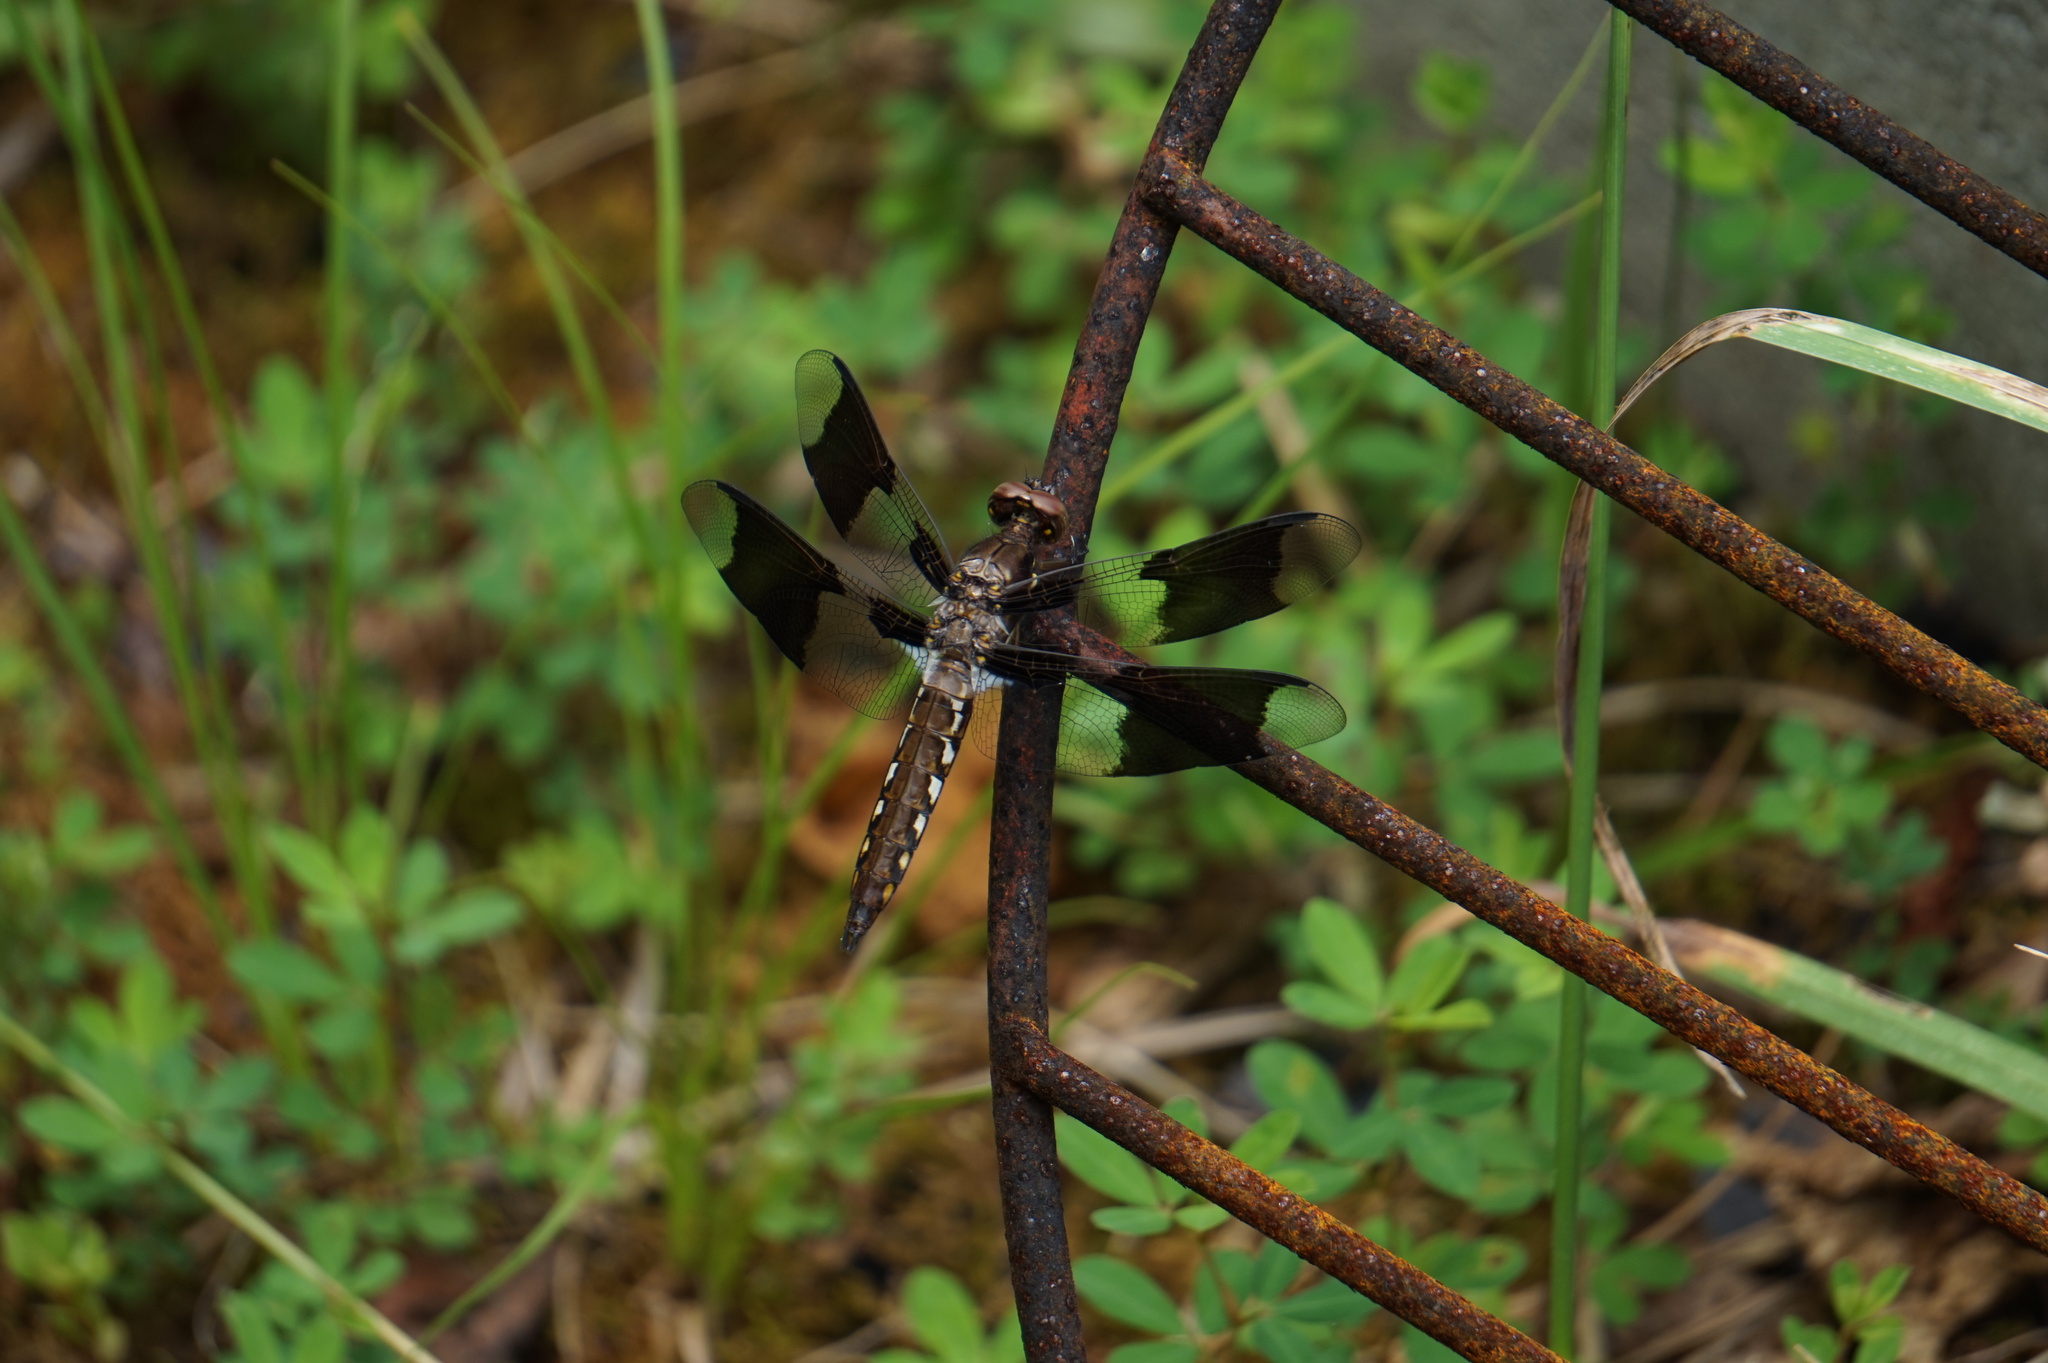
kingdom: Animalia
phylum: Arthropoda
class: Insecta
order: Odonata
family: Libellulidae
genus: Plathemis
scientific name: Plathemis lydia
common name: Common whitetail
